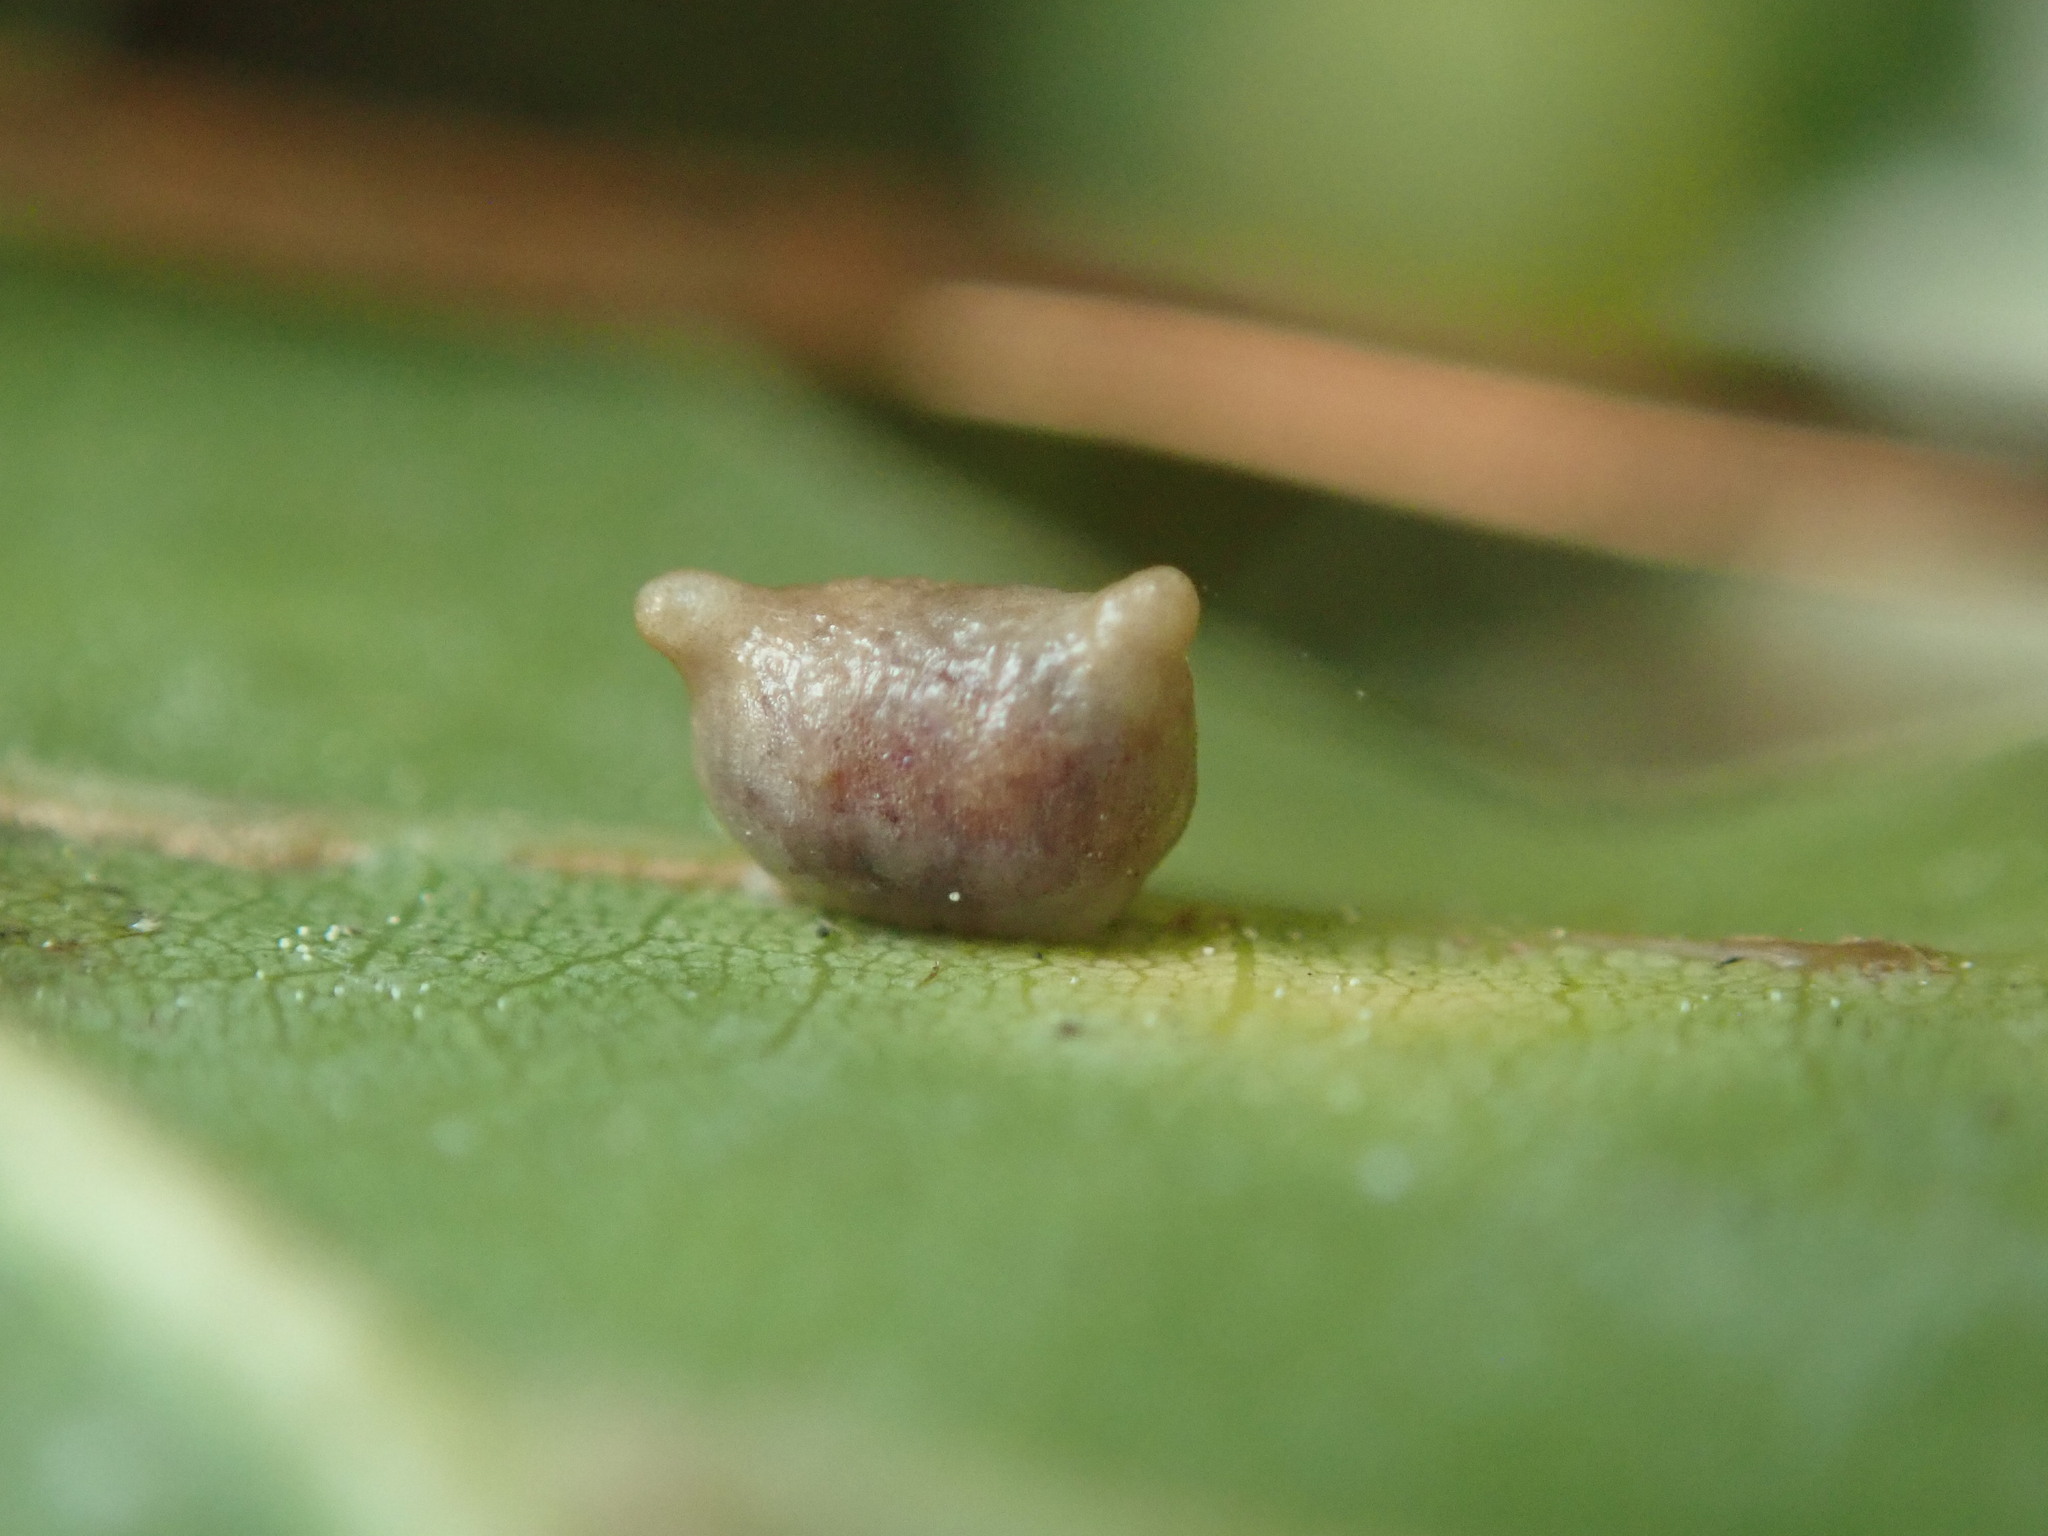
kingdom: Animalia
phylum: Arthropoda
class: Insecta
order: Hymenoptera
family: Cynipidae
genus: Dryocosmus
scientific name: Dryocosmus
